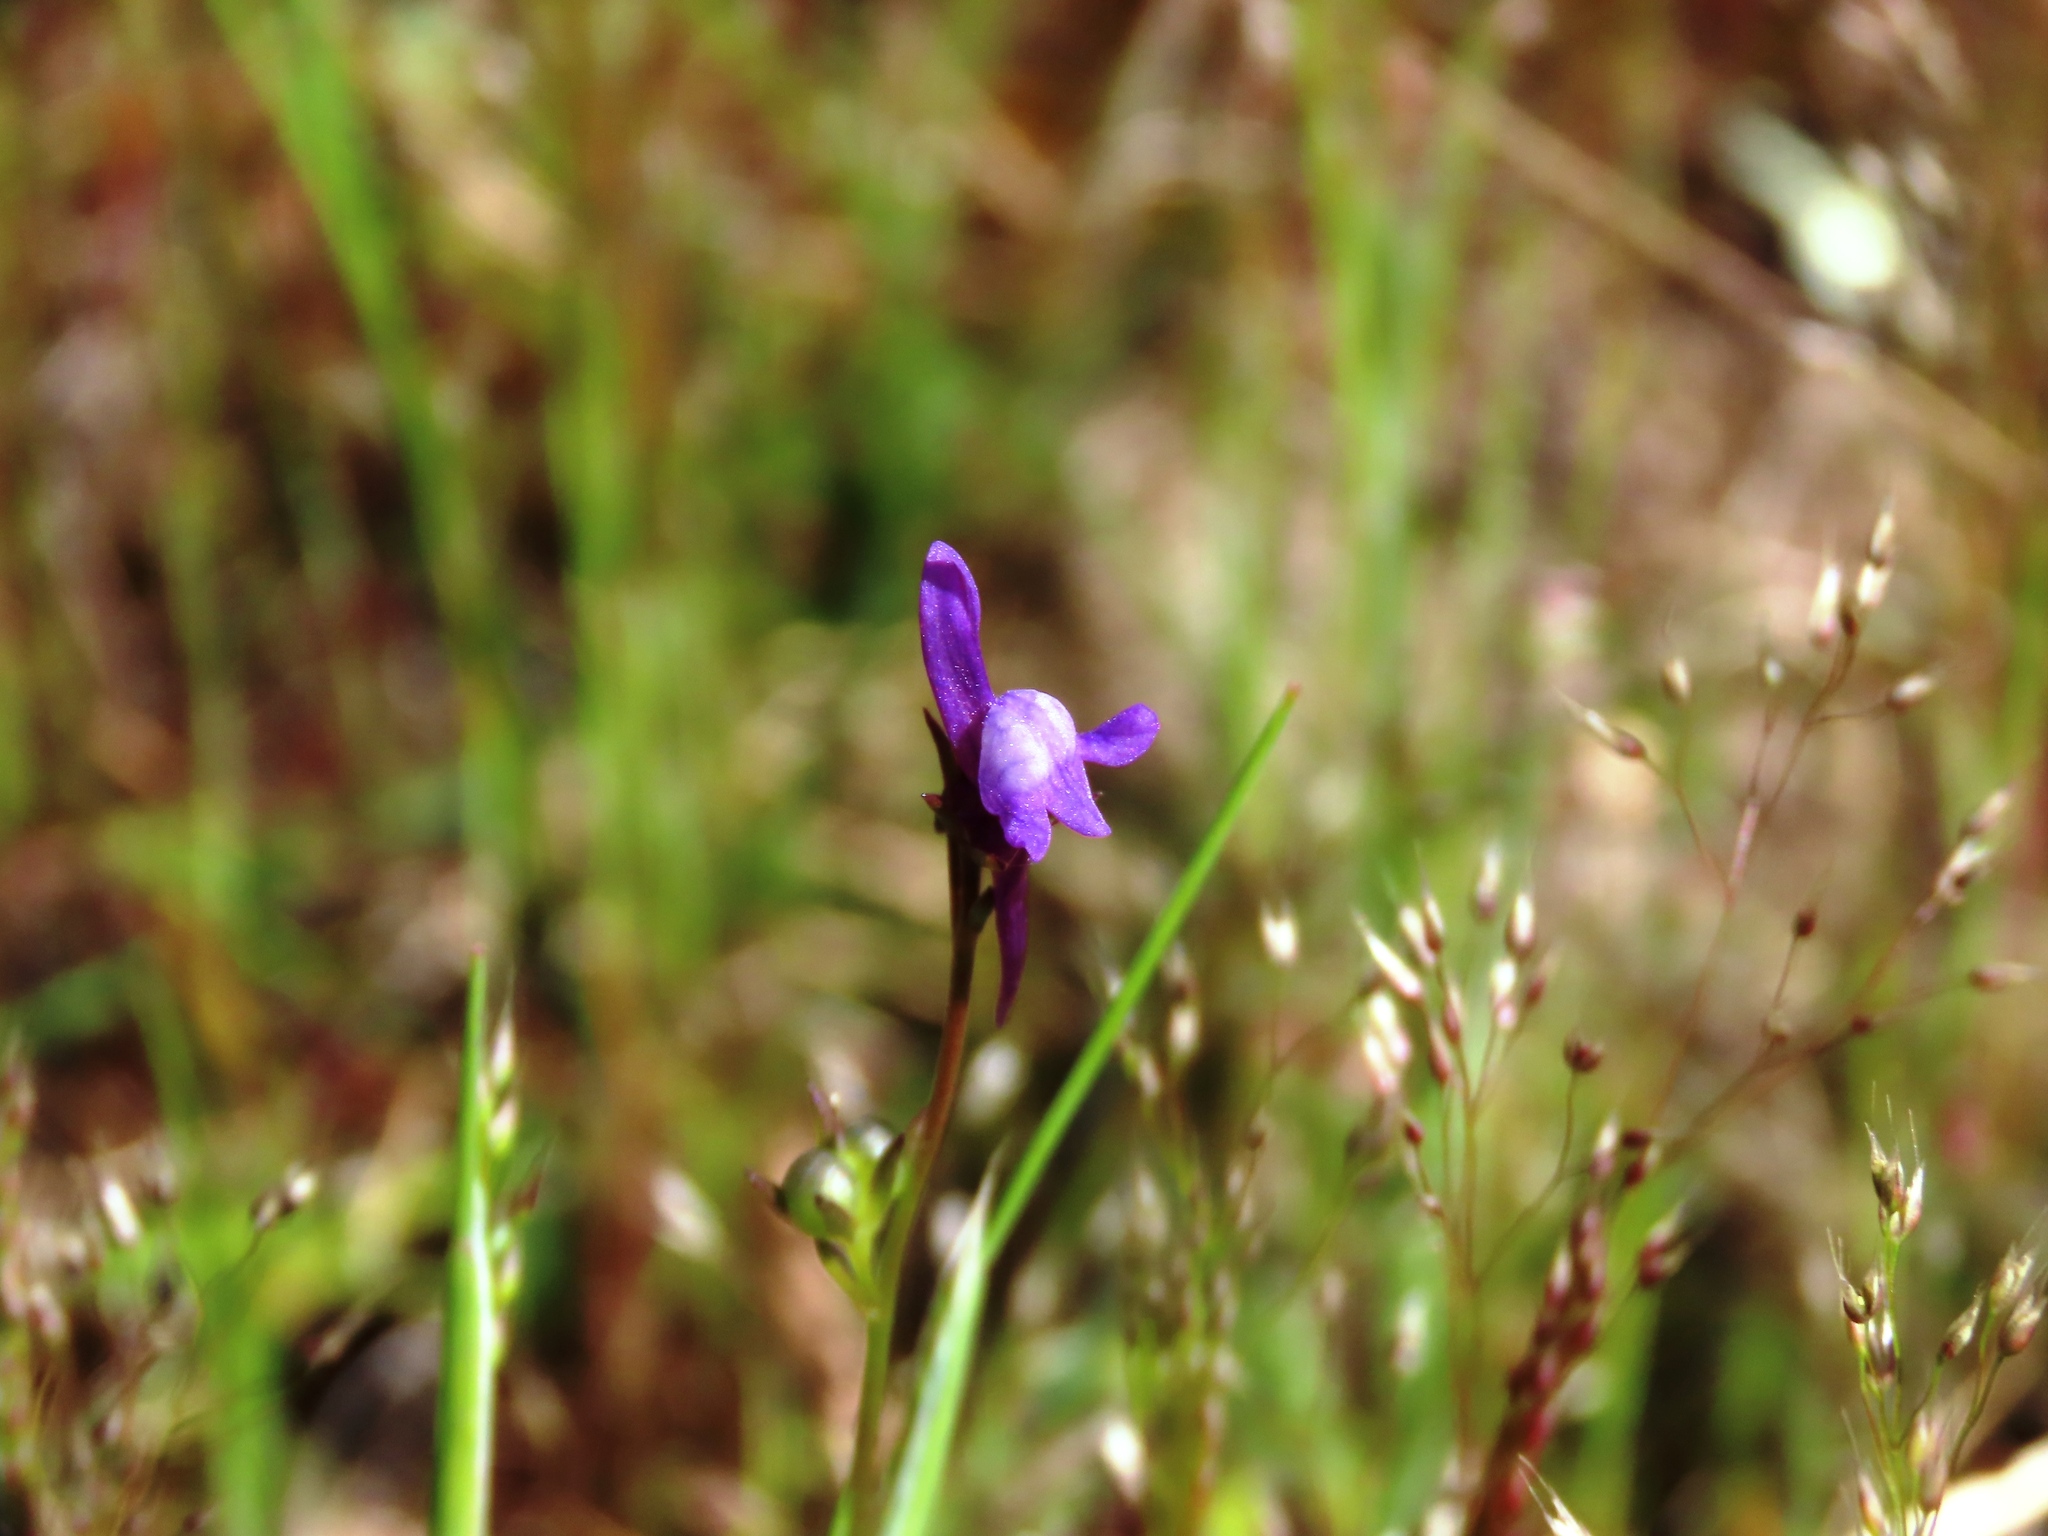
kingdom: Plantae
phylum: Tracheophyta
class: Magnoliopsida
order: Lamiales
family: Plantaginaceae
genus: Linaria
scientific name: Linaria pelisseriana
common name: Jersey toadflax
